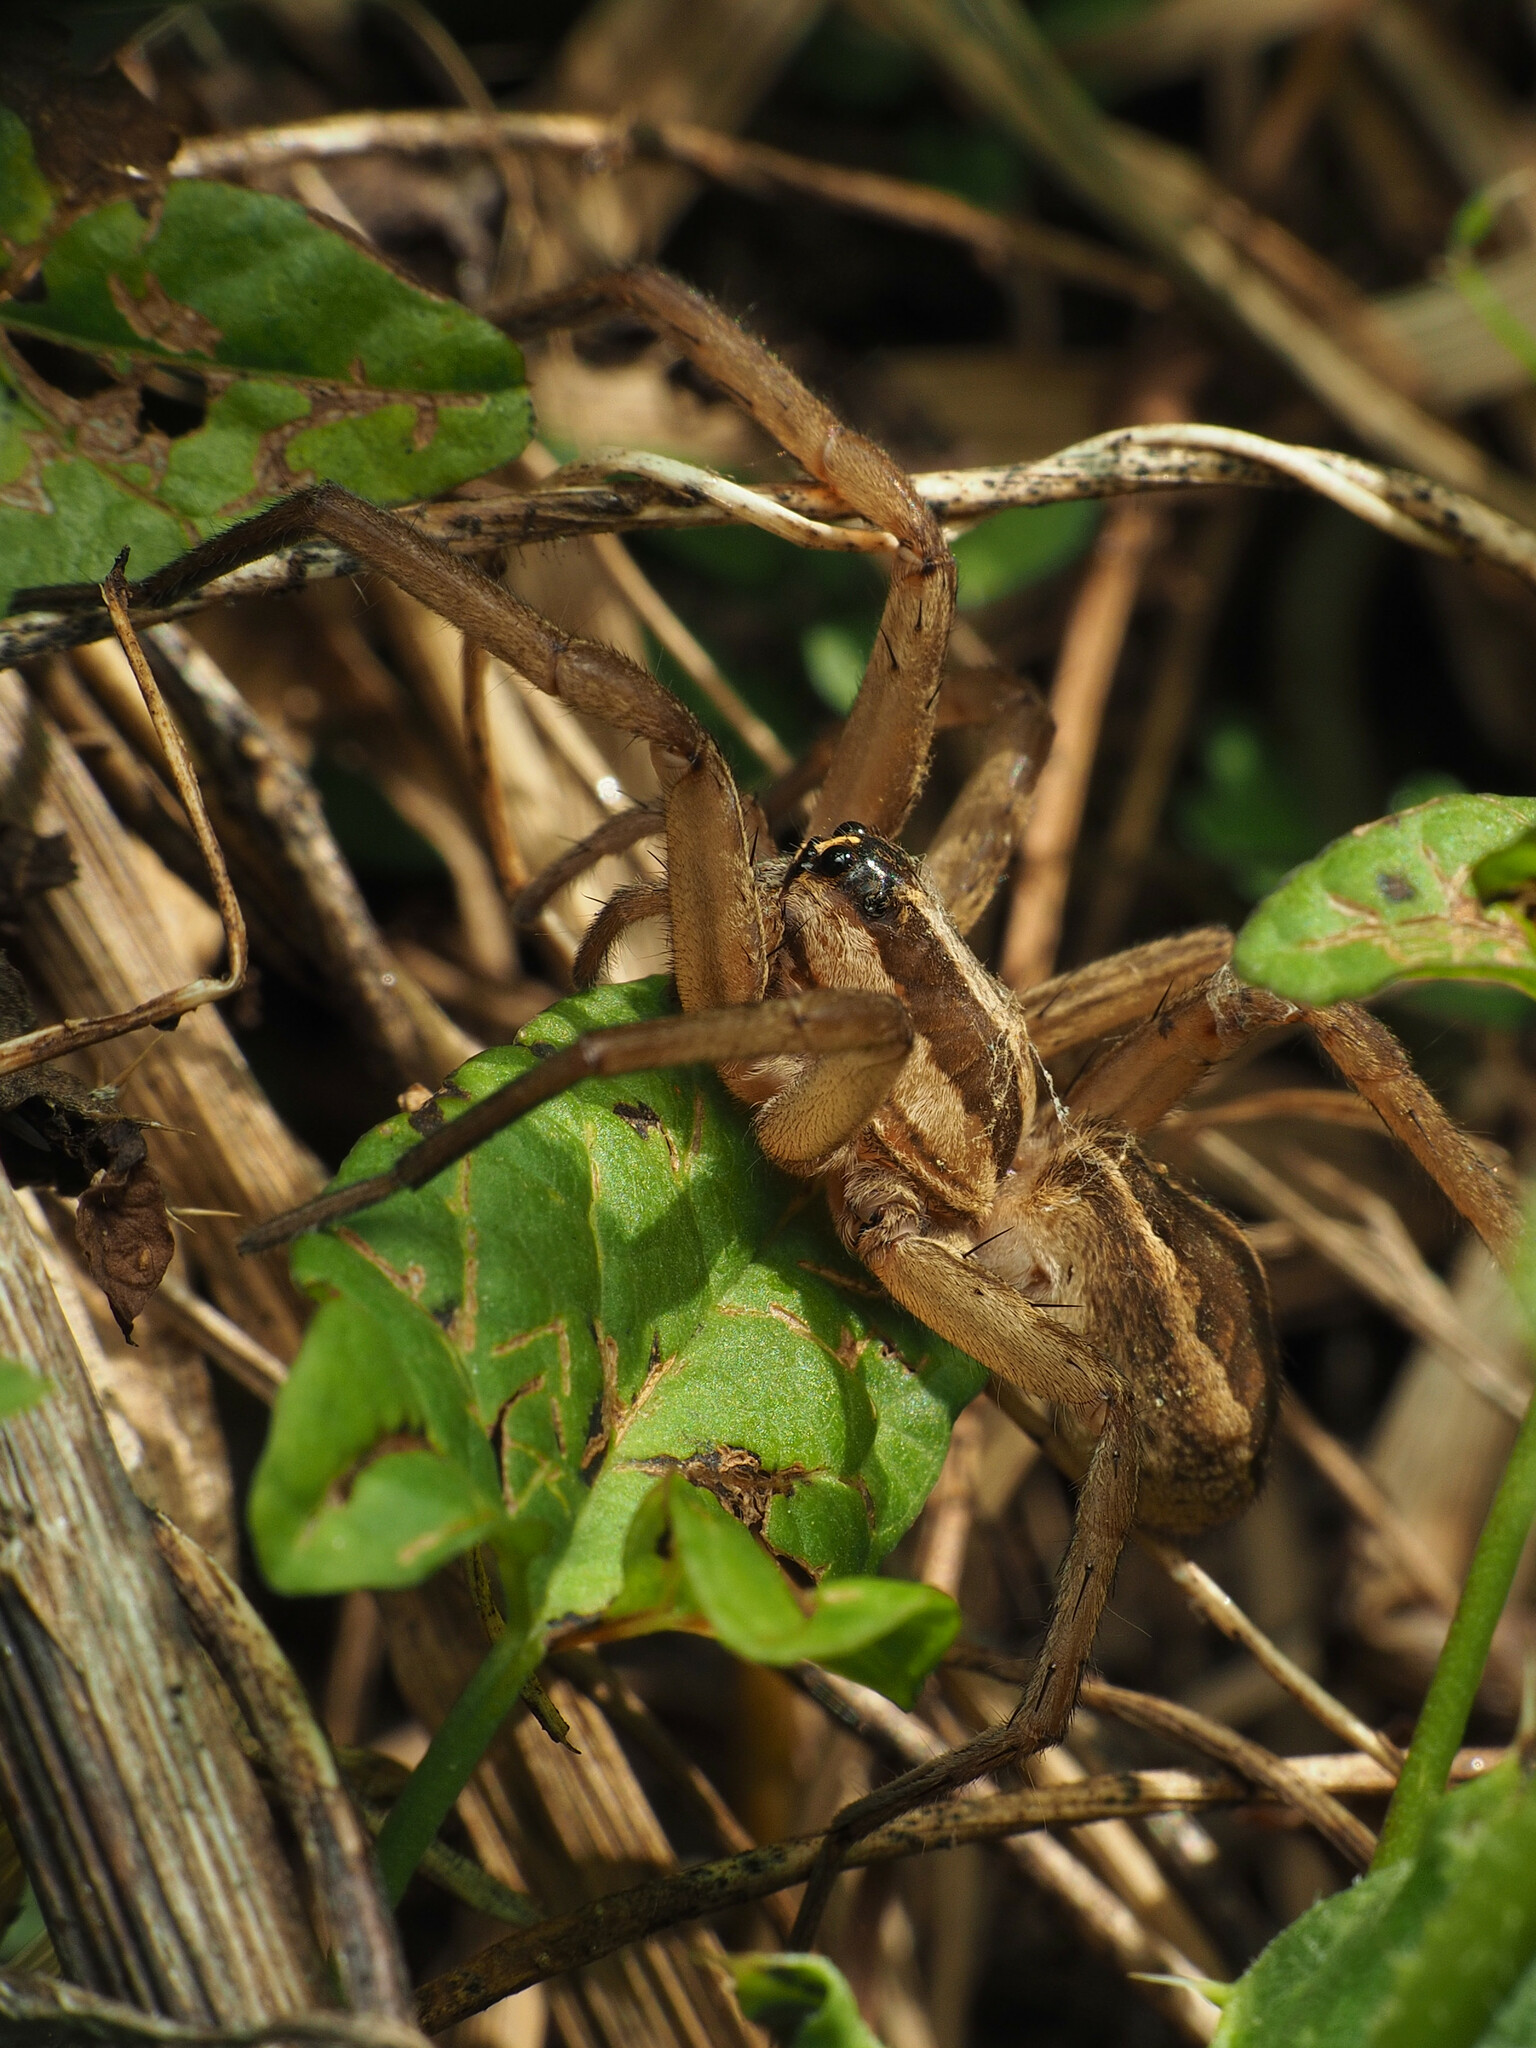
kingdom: Animalia
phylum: Arthropoda
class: Arachnida
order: Araneae
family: Lycosidae
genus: Rabidosa
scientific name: Rabidosa rabida
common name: Rabid wolf spider
